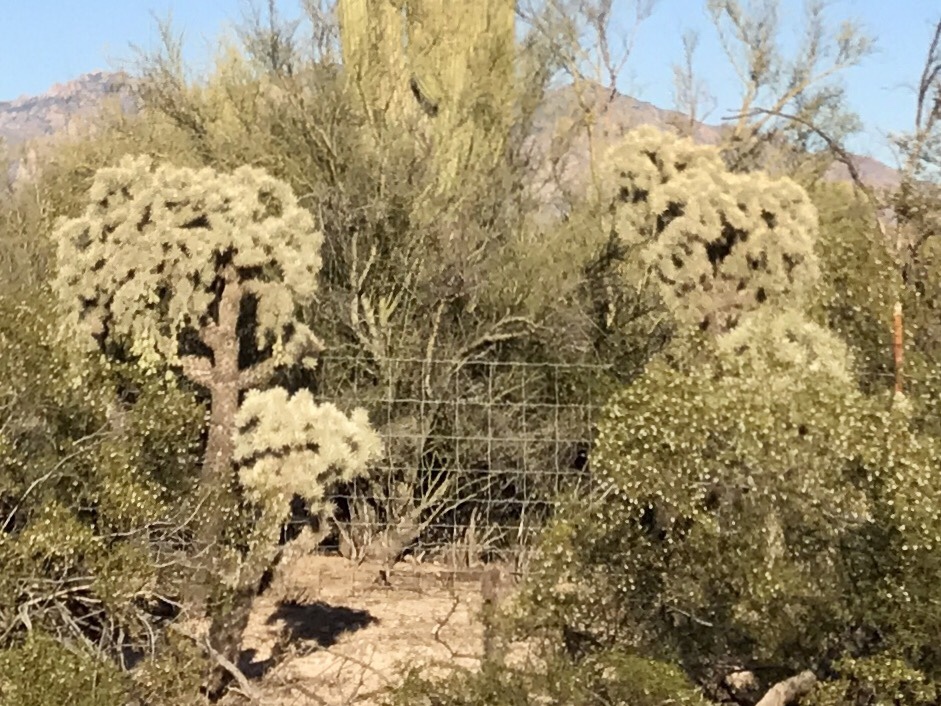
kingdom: Plantae
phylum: Tracheophyta
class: Magnoliopsida
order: Caryophyllales
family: Cactaceae
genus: Cylindropuntia
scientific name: Cylindropuntia fulgida
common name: Jumping cholla
